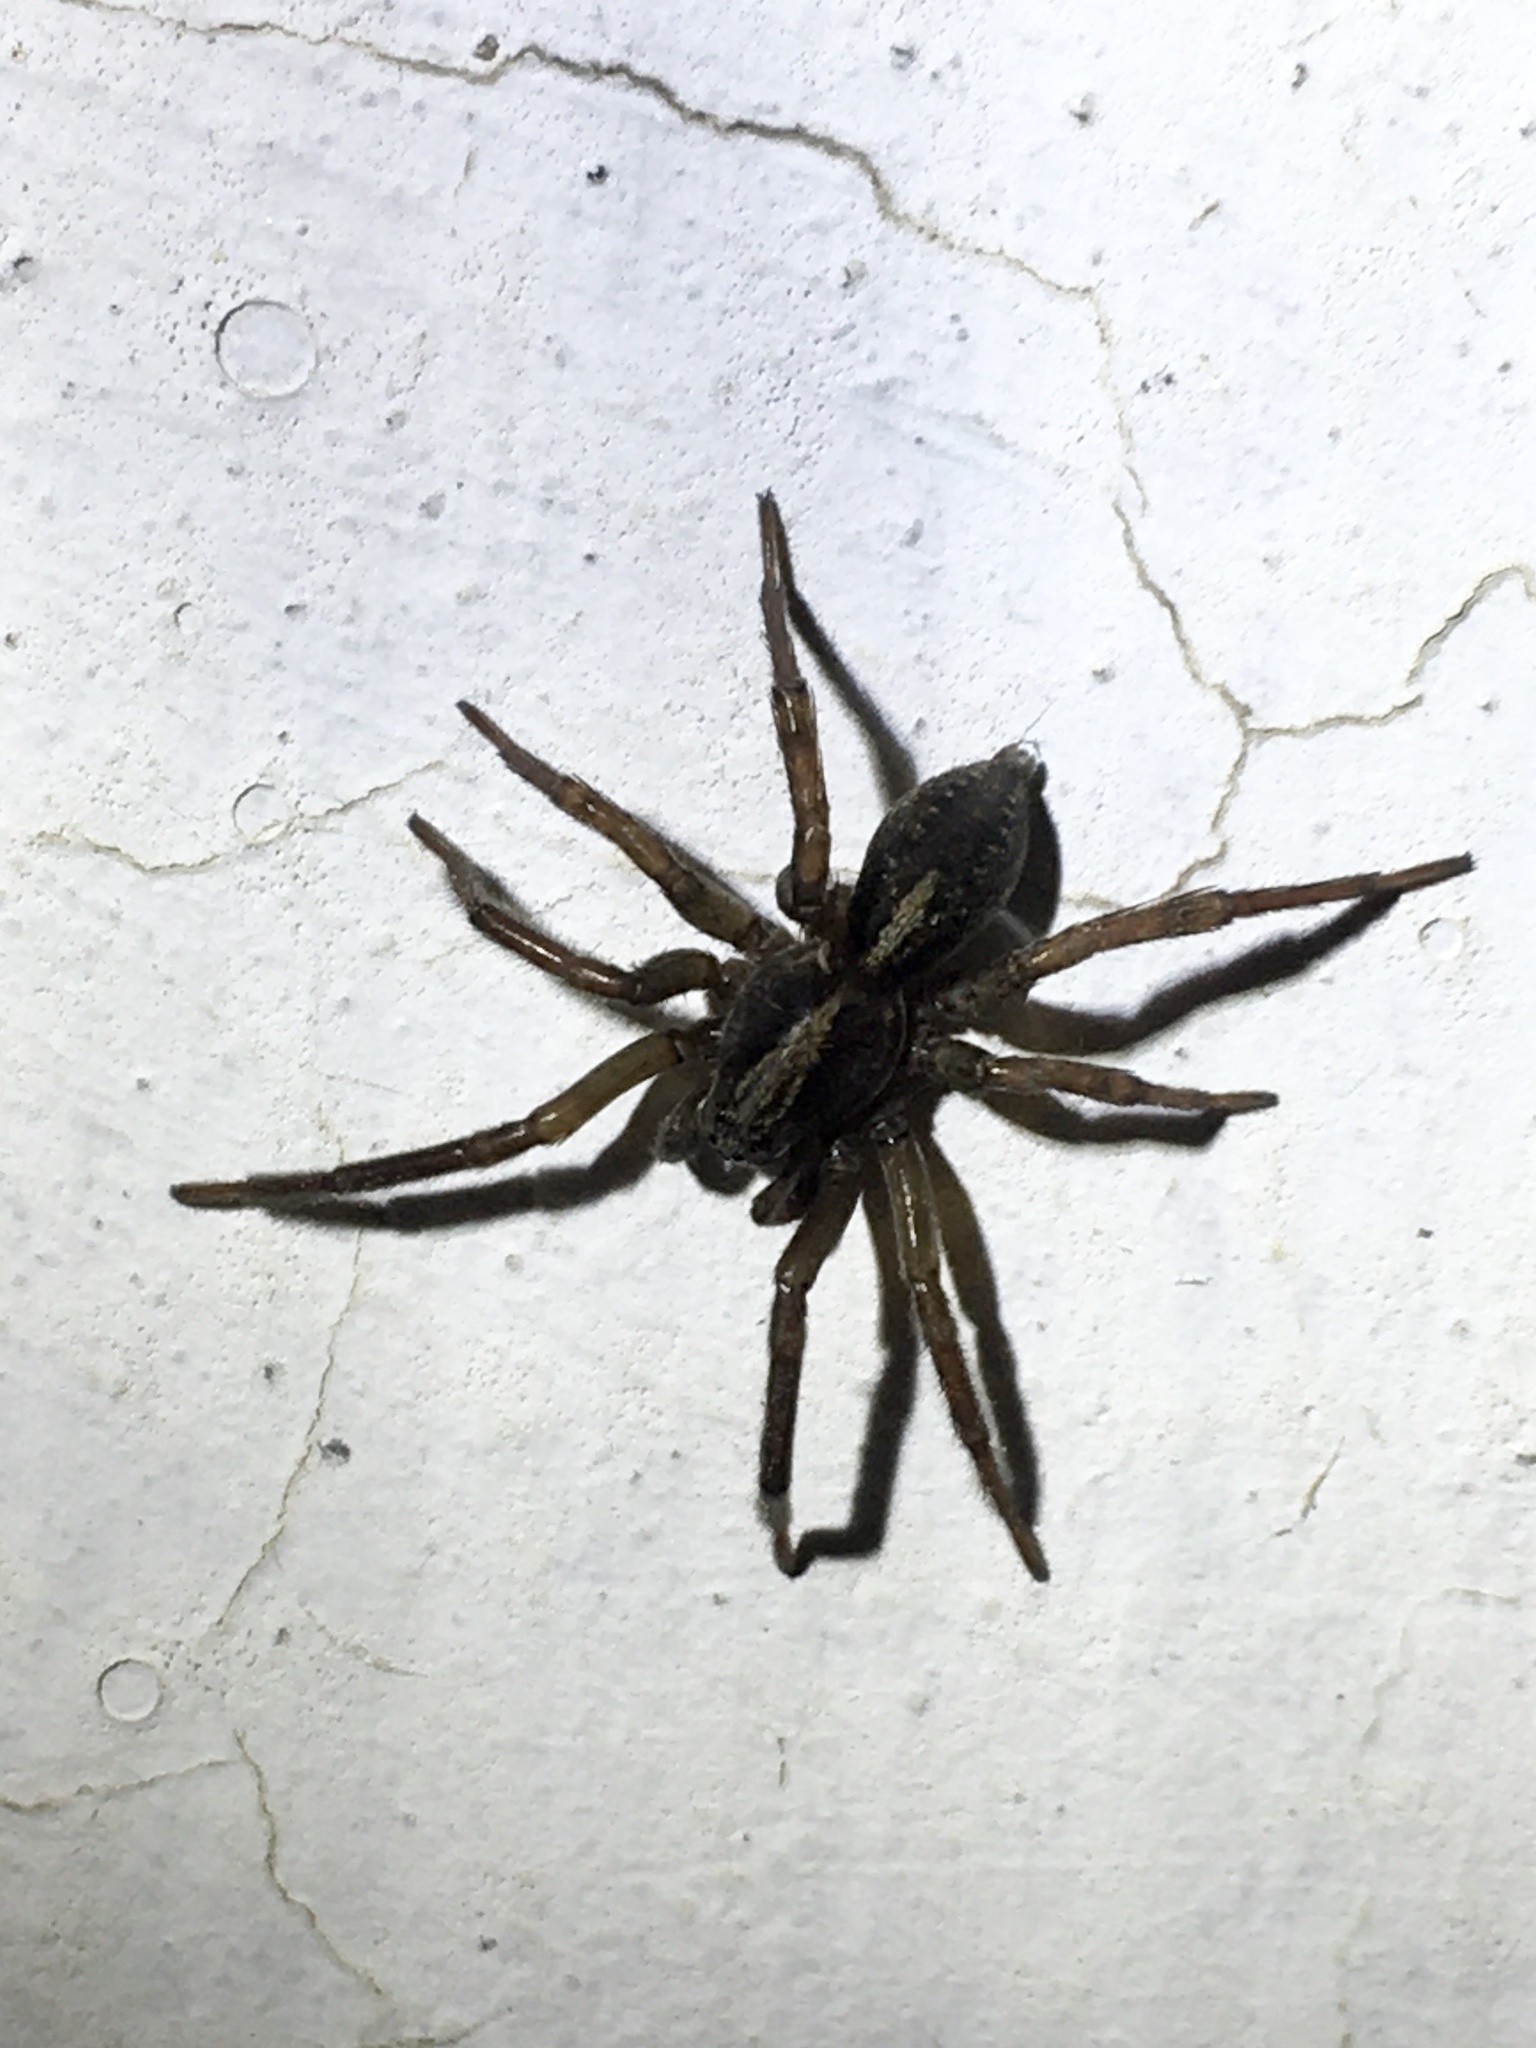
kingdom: Animalia
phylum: Arthropoda
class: Arachnida
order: Araneae
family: Lycosidae
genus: Trochosa
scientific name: Trochosa terricola
